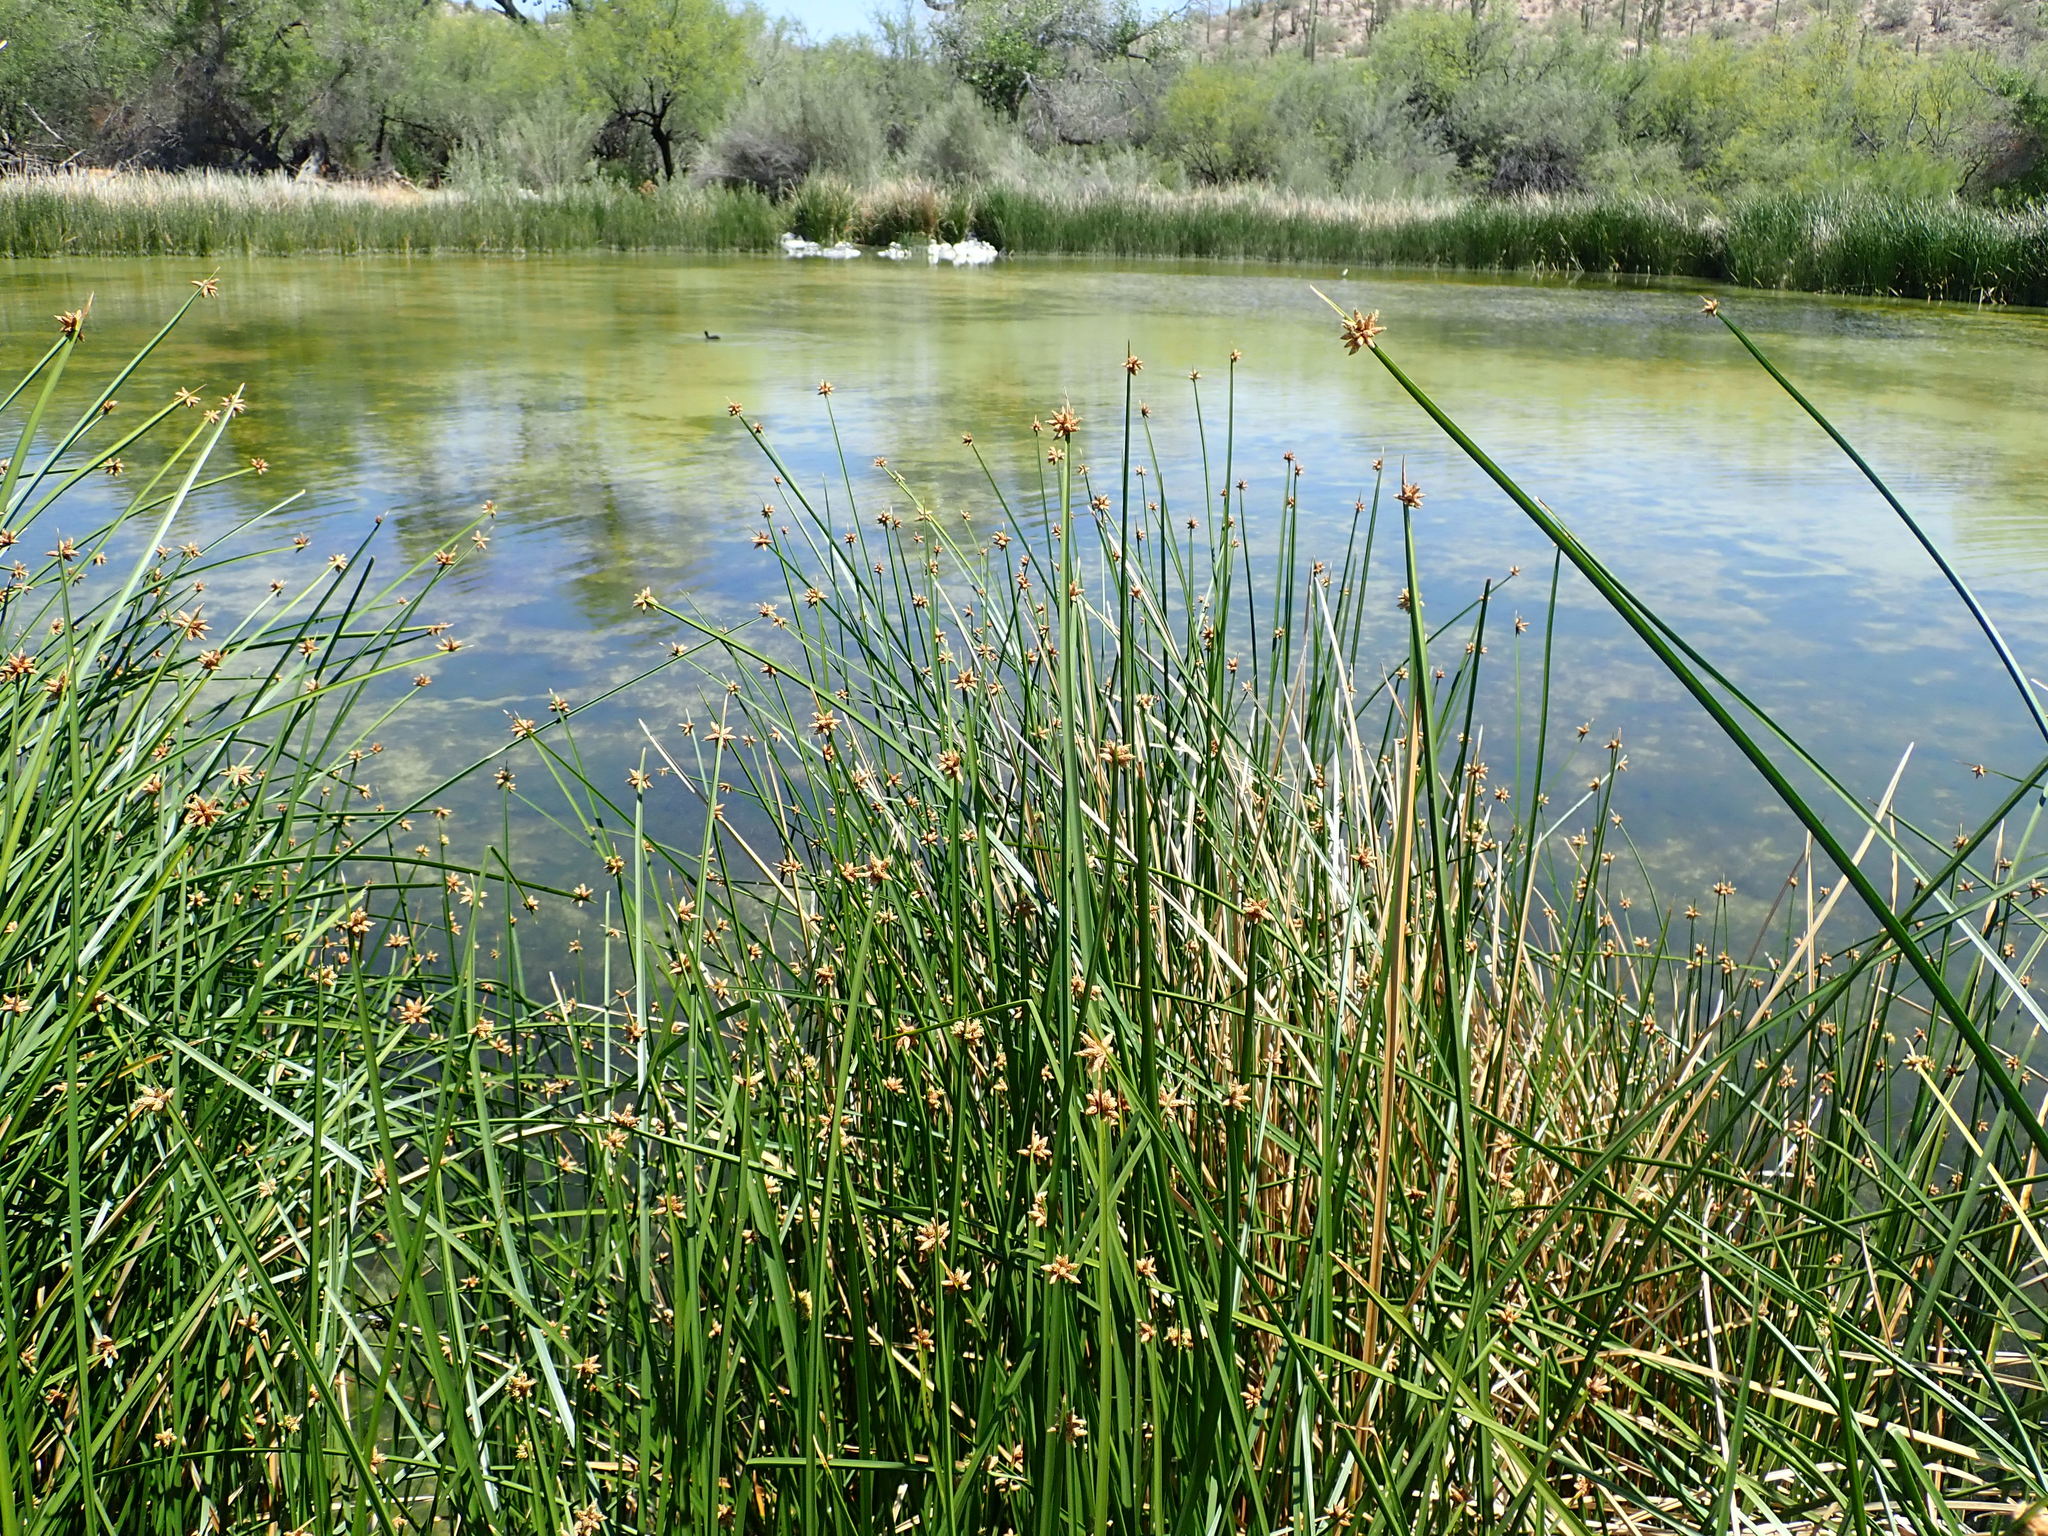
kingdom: Plantae
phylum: Tracheophyta
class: Liliopsida
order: Poales
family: Cyperaceae
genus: Schoenoplectus
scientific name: Schoenoplectus americanus
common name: American three-square bulrush
